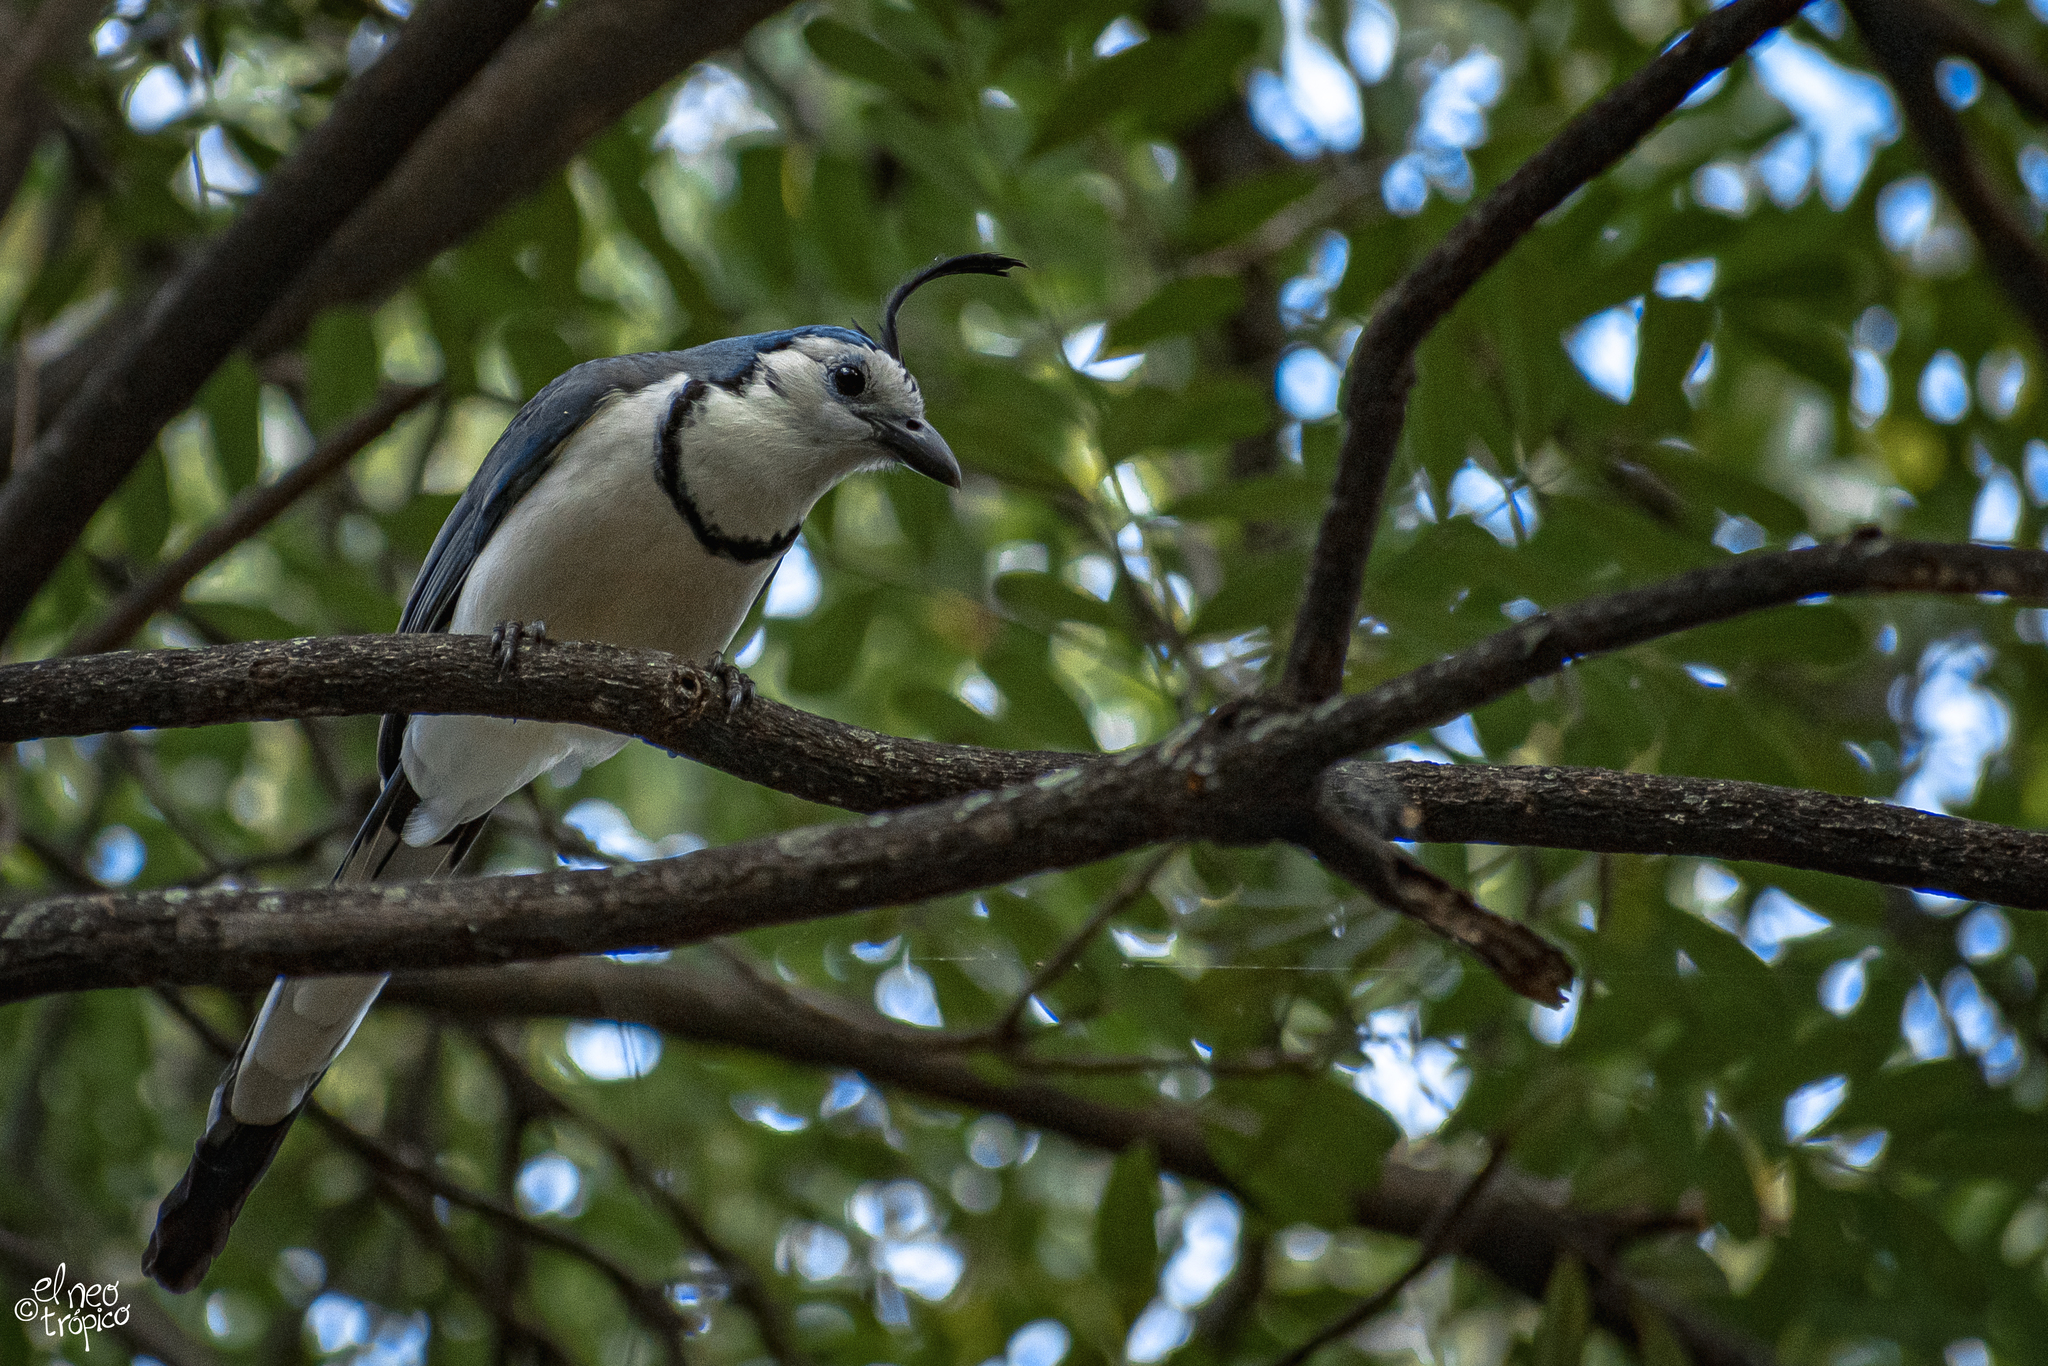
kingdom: Animalia
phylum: Chordata
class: Aves
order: Passeriformes
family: Corvidae
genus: Calocitta
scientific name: Calocitta formosa
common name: White-throated magpie-jay
